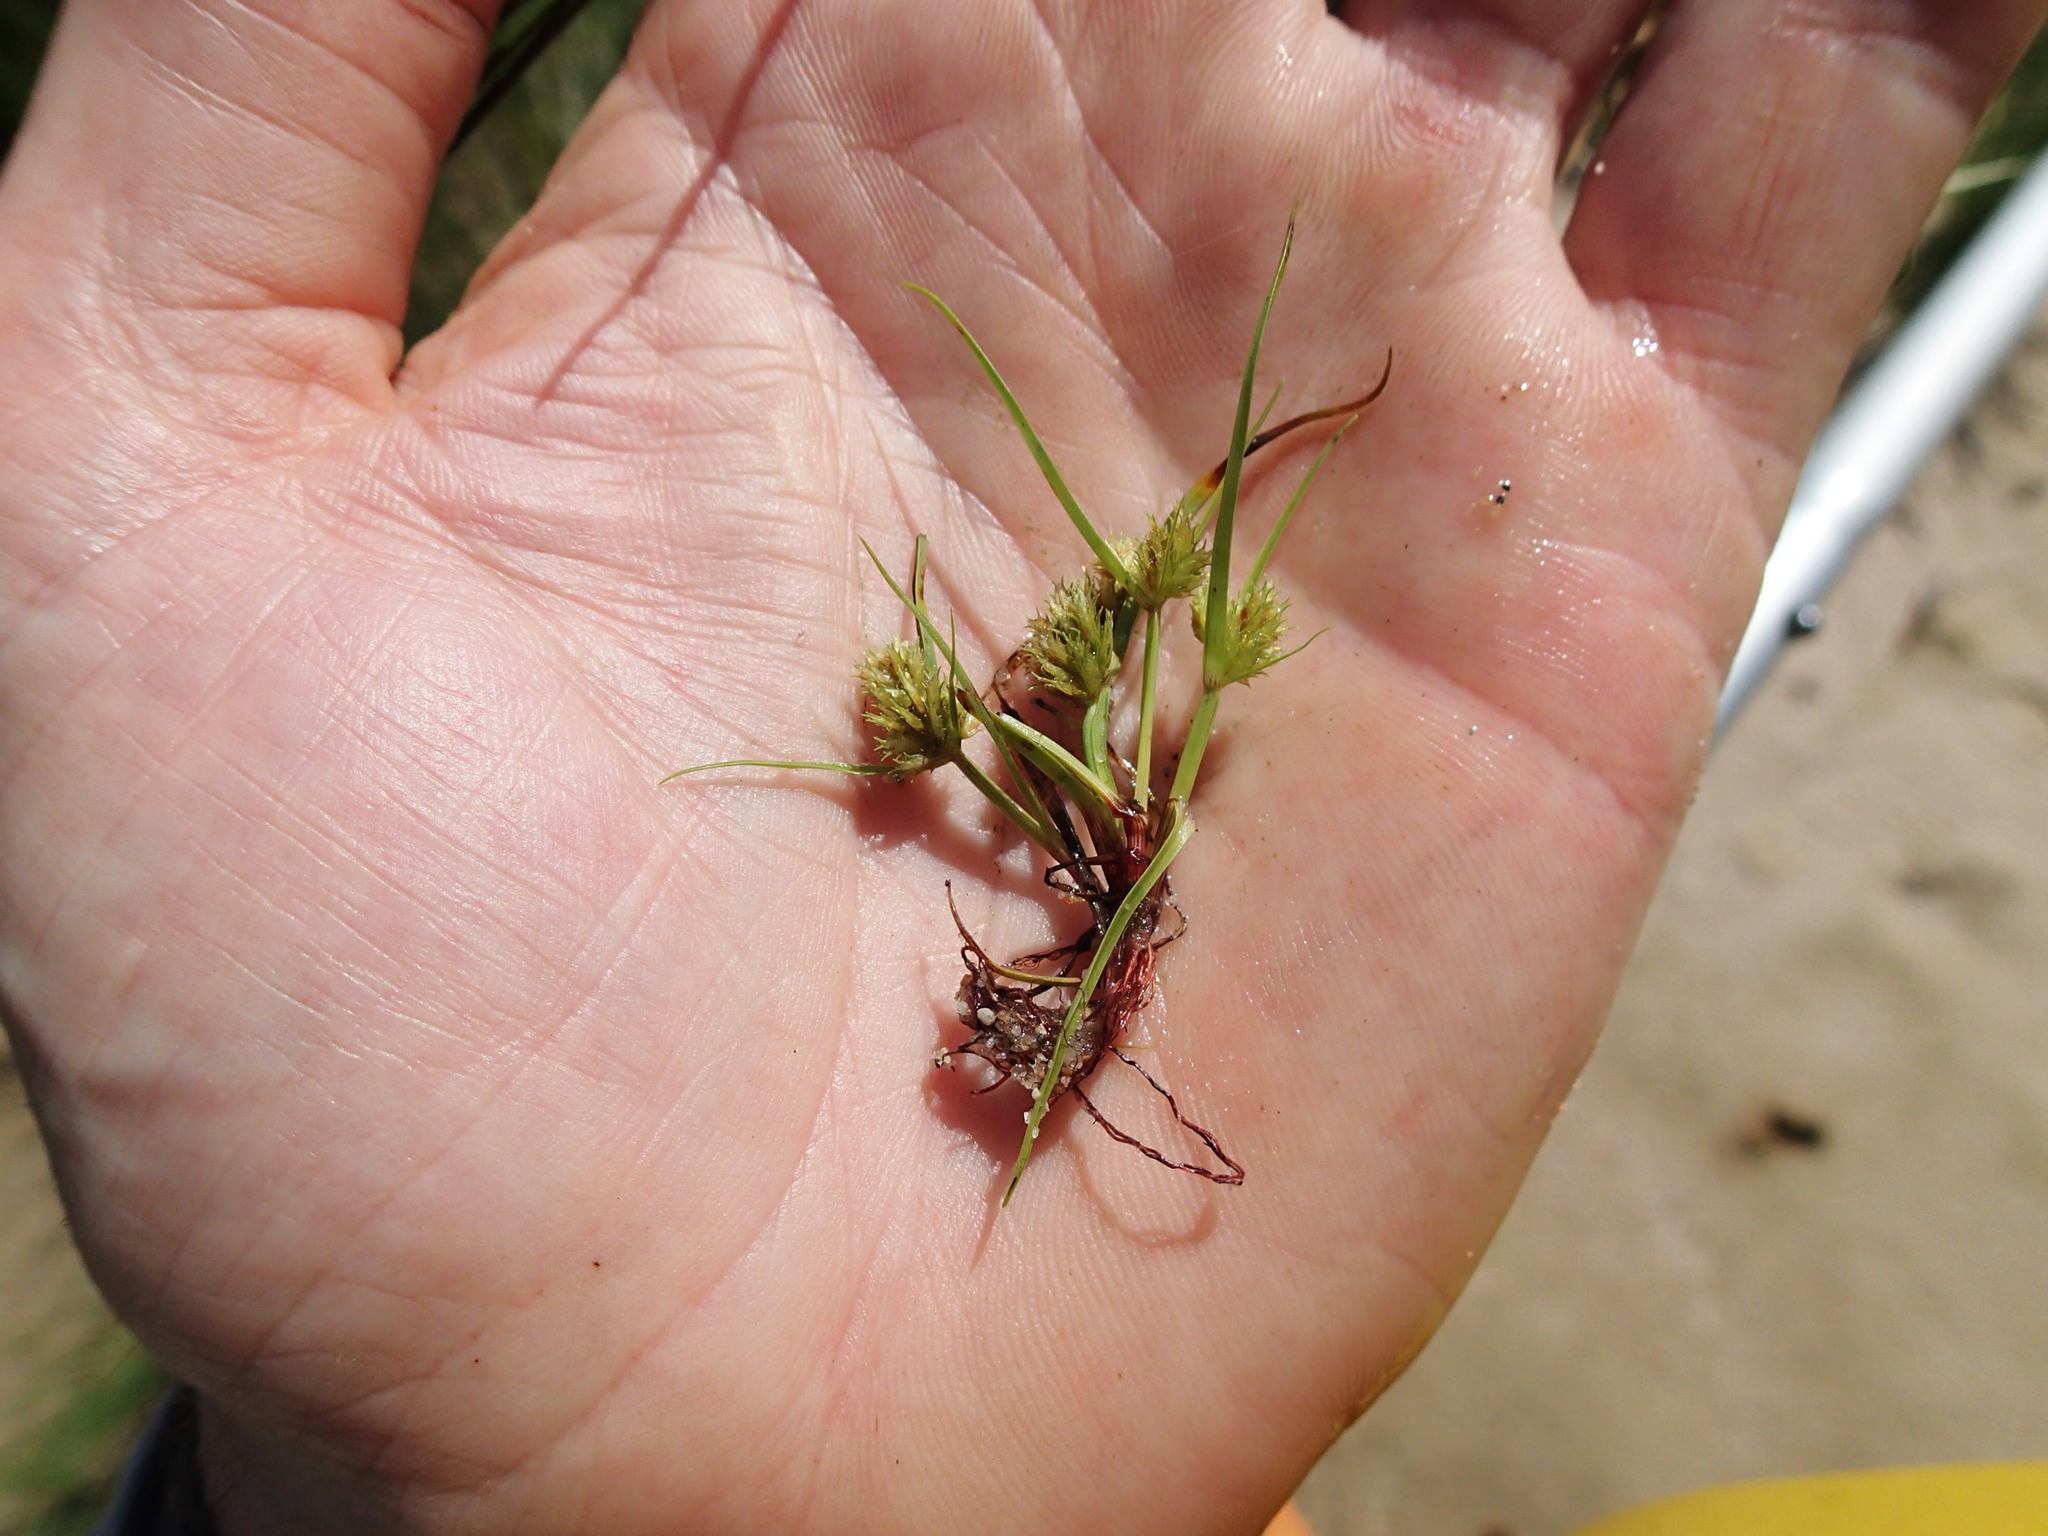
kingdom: Plantae
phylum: Tracheophyta
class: Liliopsida
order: Poales
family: Cyperaceae
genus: Cyperus
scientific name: Cyperus squarrosus
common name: Awned cyperus
